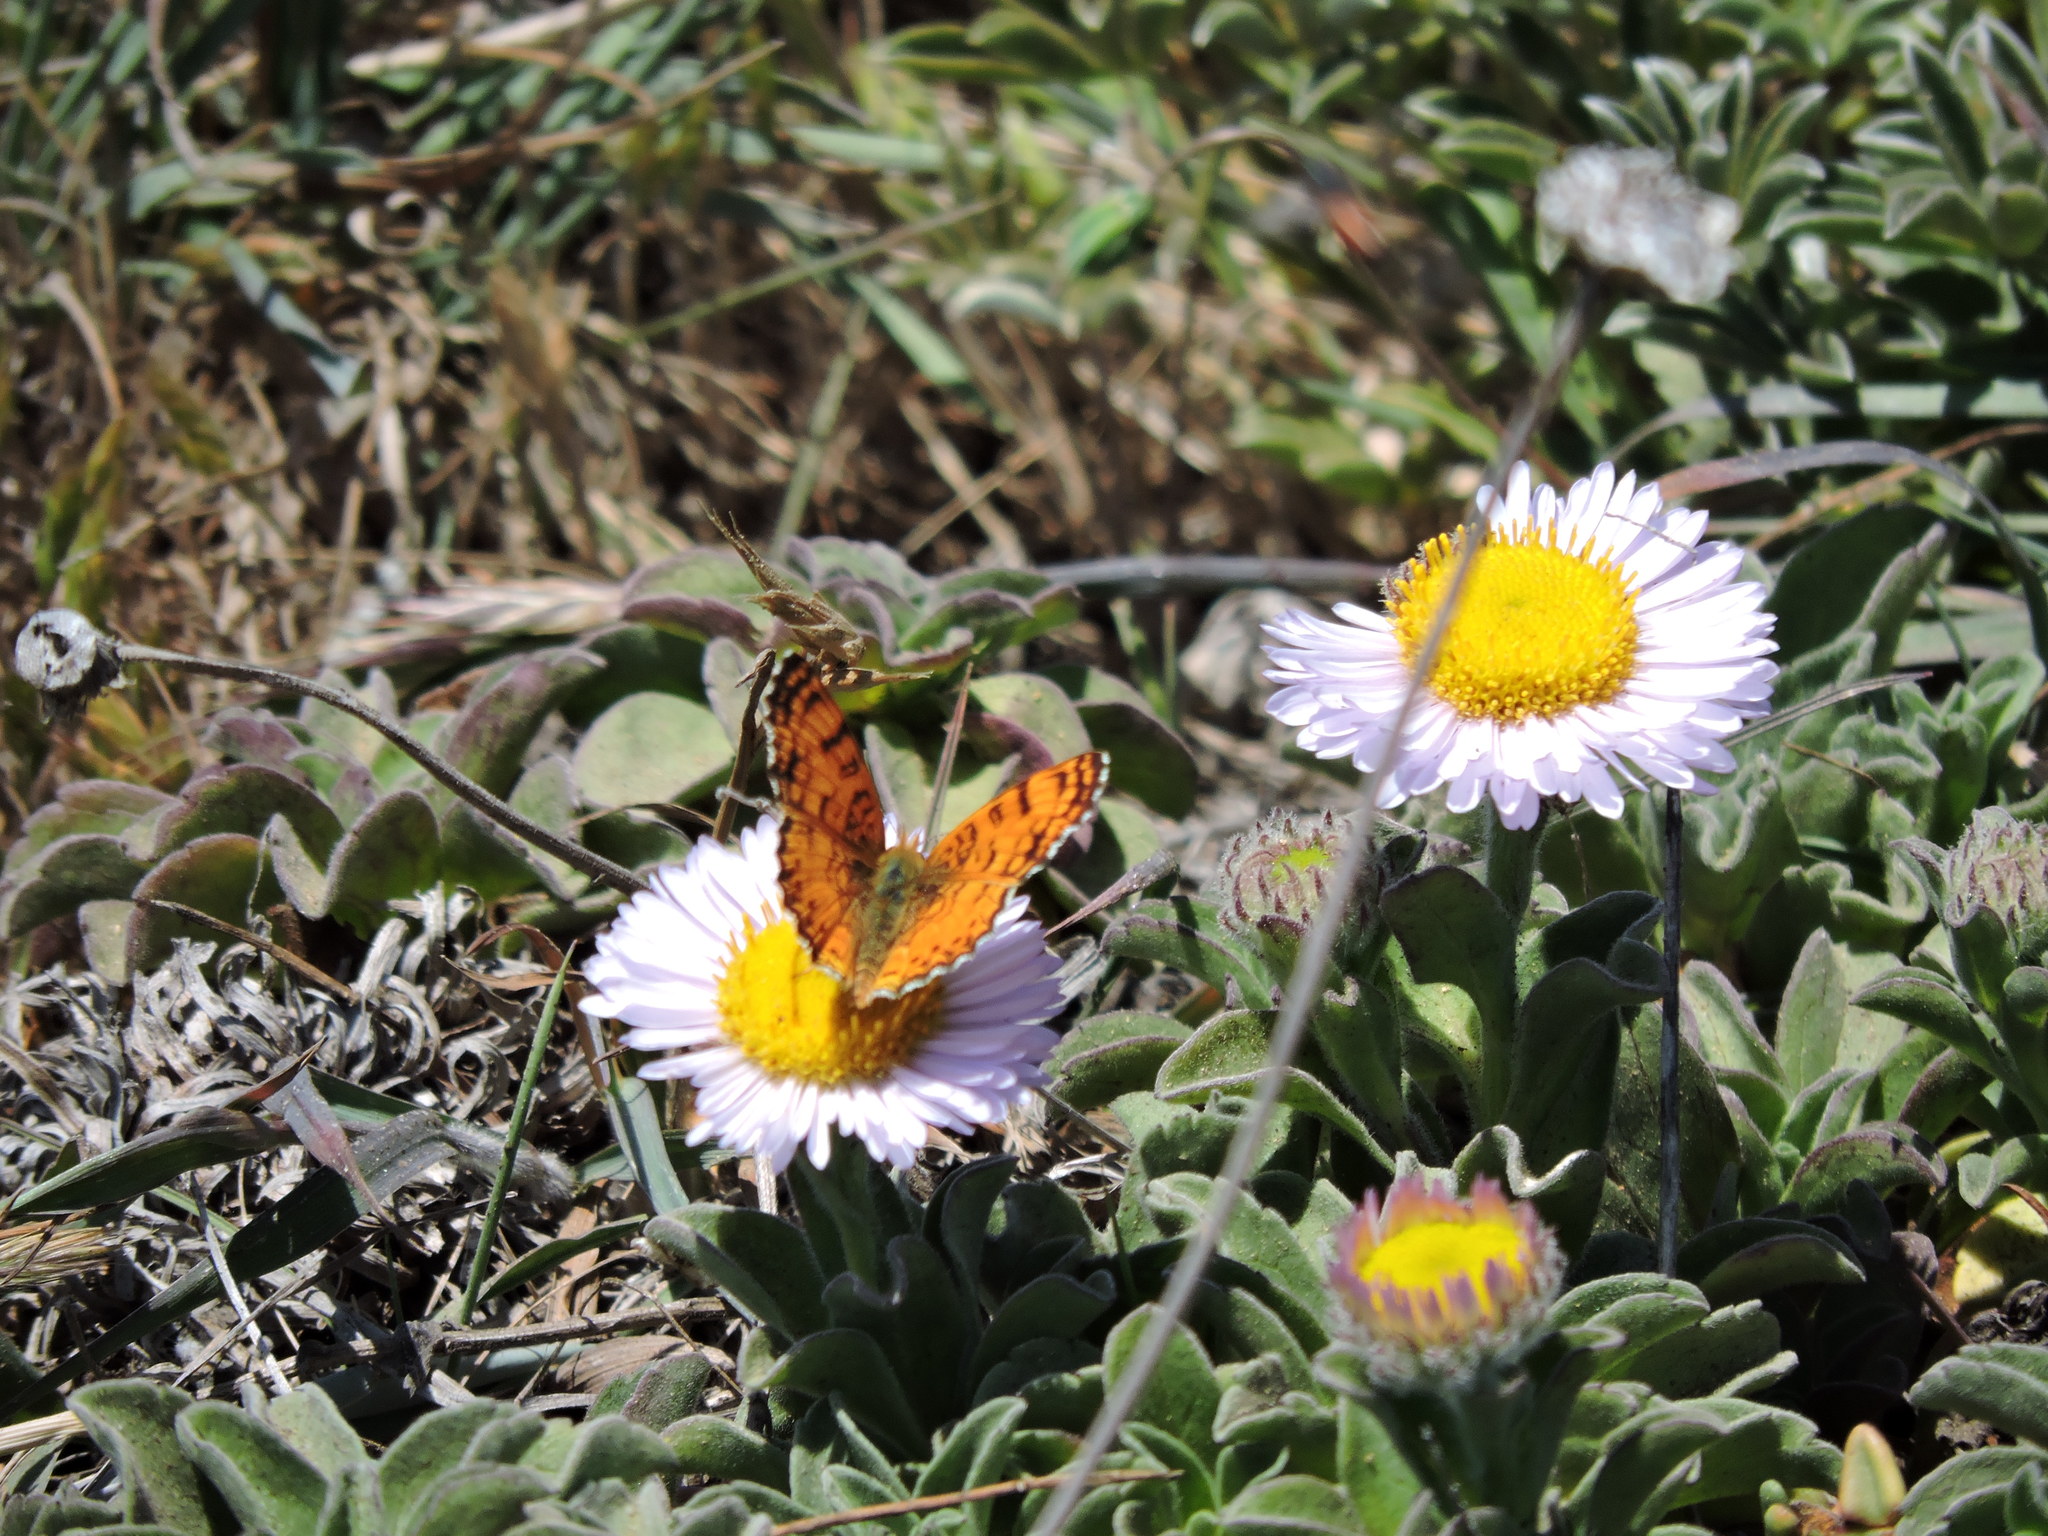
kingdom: Plantae
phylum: Tracheophyta
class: Magnoliopsida
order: Asterales
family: Asteraceae
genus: Erigeron
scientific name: Erigeron glaucus
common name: Seaside daisy
